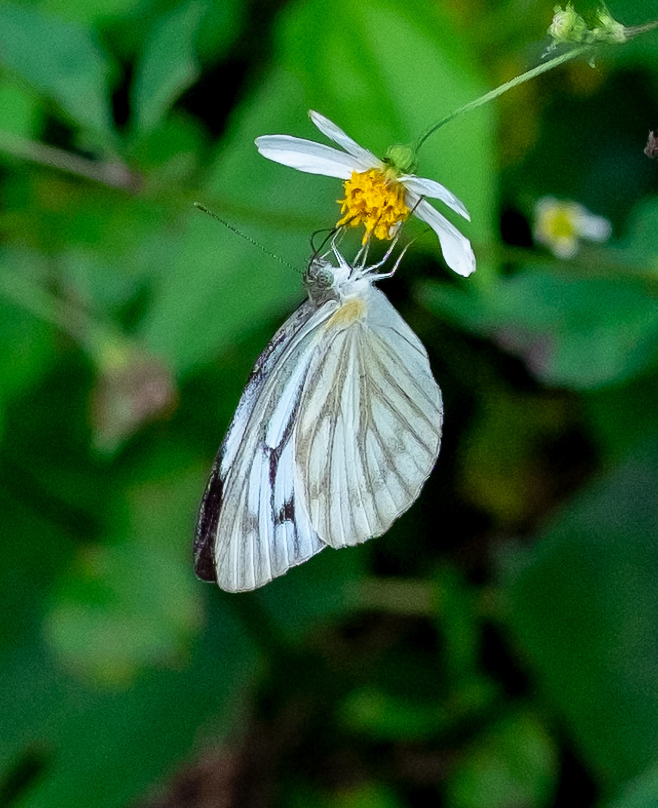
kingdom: Animalia
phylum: Arthropoda
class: Insecta
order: Lepidoptera
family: Pieridae
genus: Cepora
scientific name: Cepora nerissa
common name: Common gull
